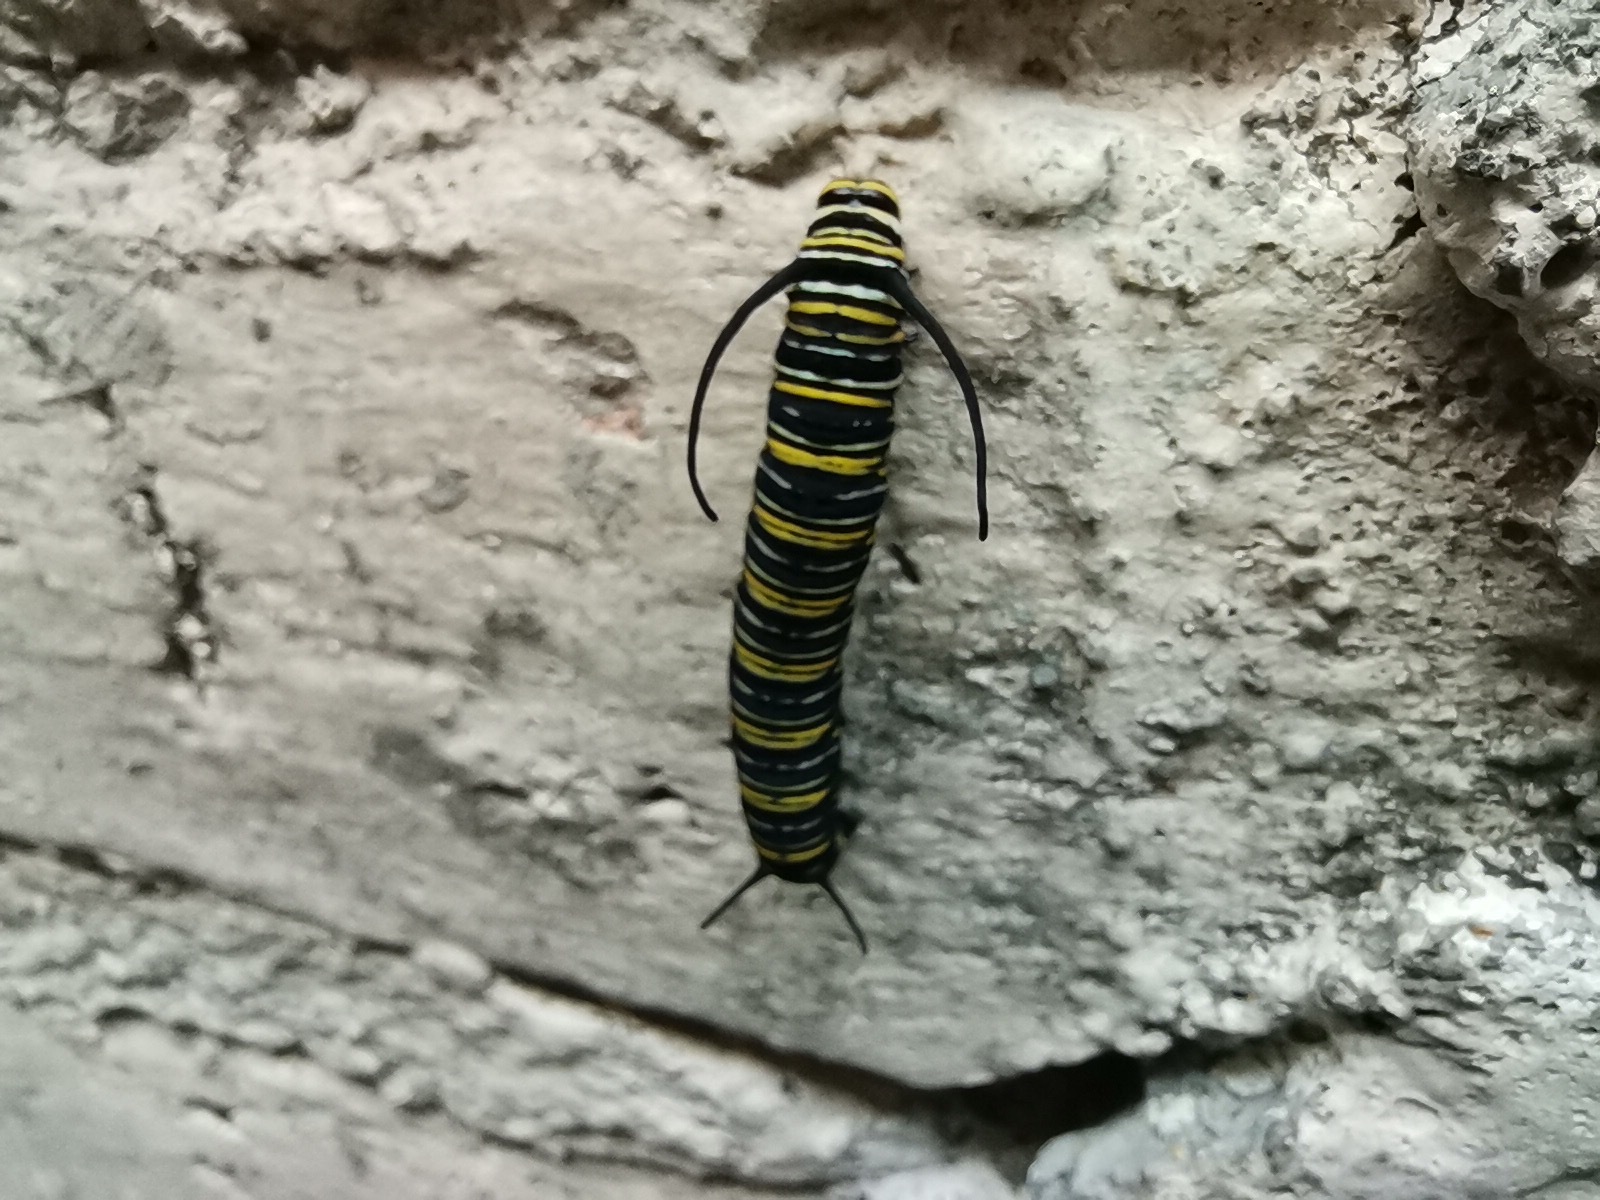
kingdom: Animalia
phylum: Arthropoda
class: Insecta
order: Lepidoptera
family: Nymphalidae
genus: Danaus
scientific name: Danaus plexippus
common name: Monarch
